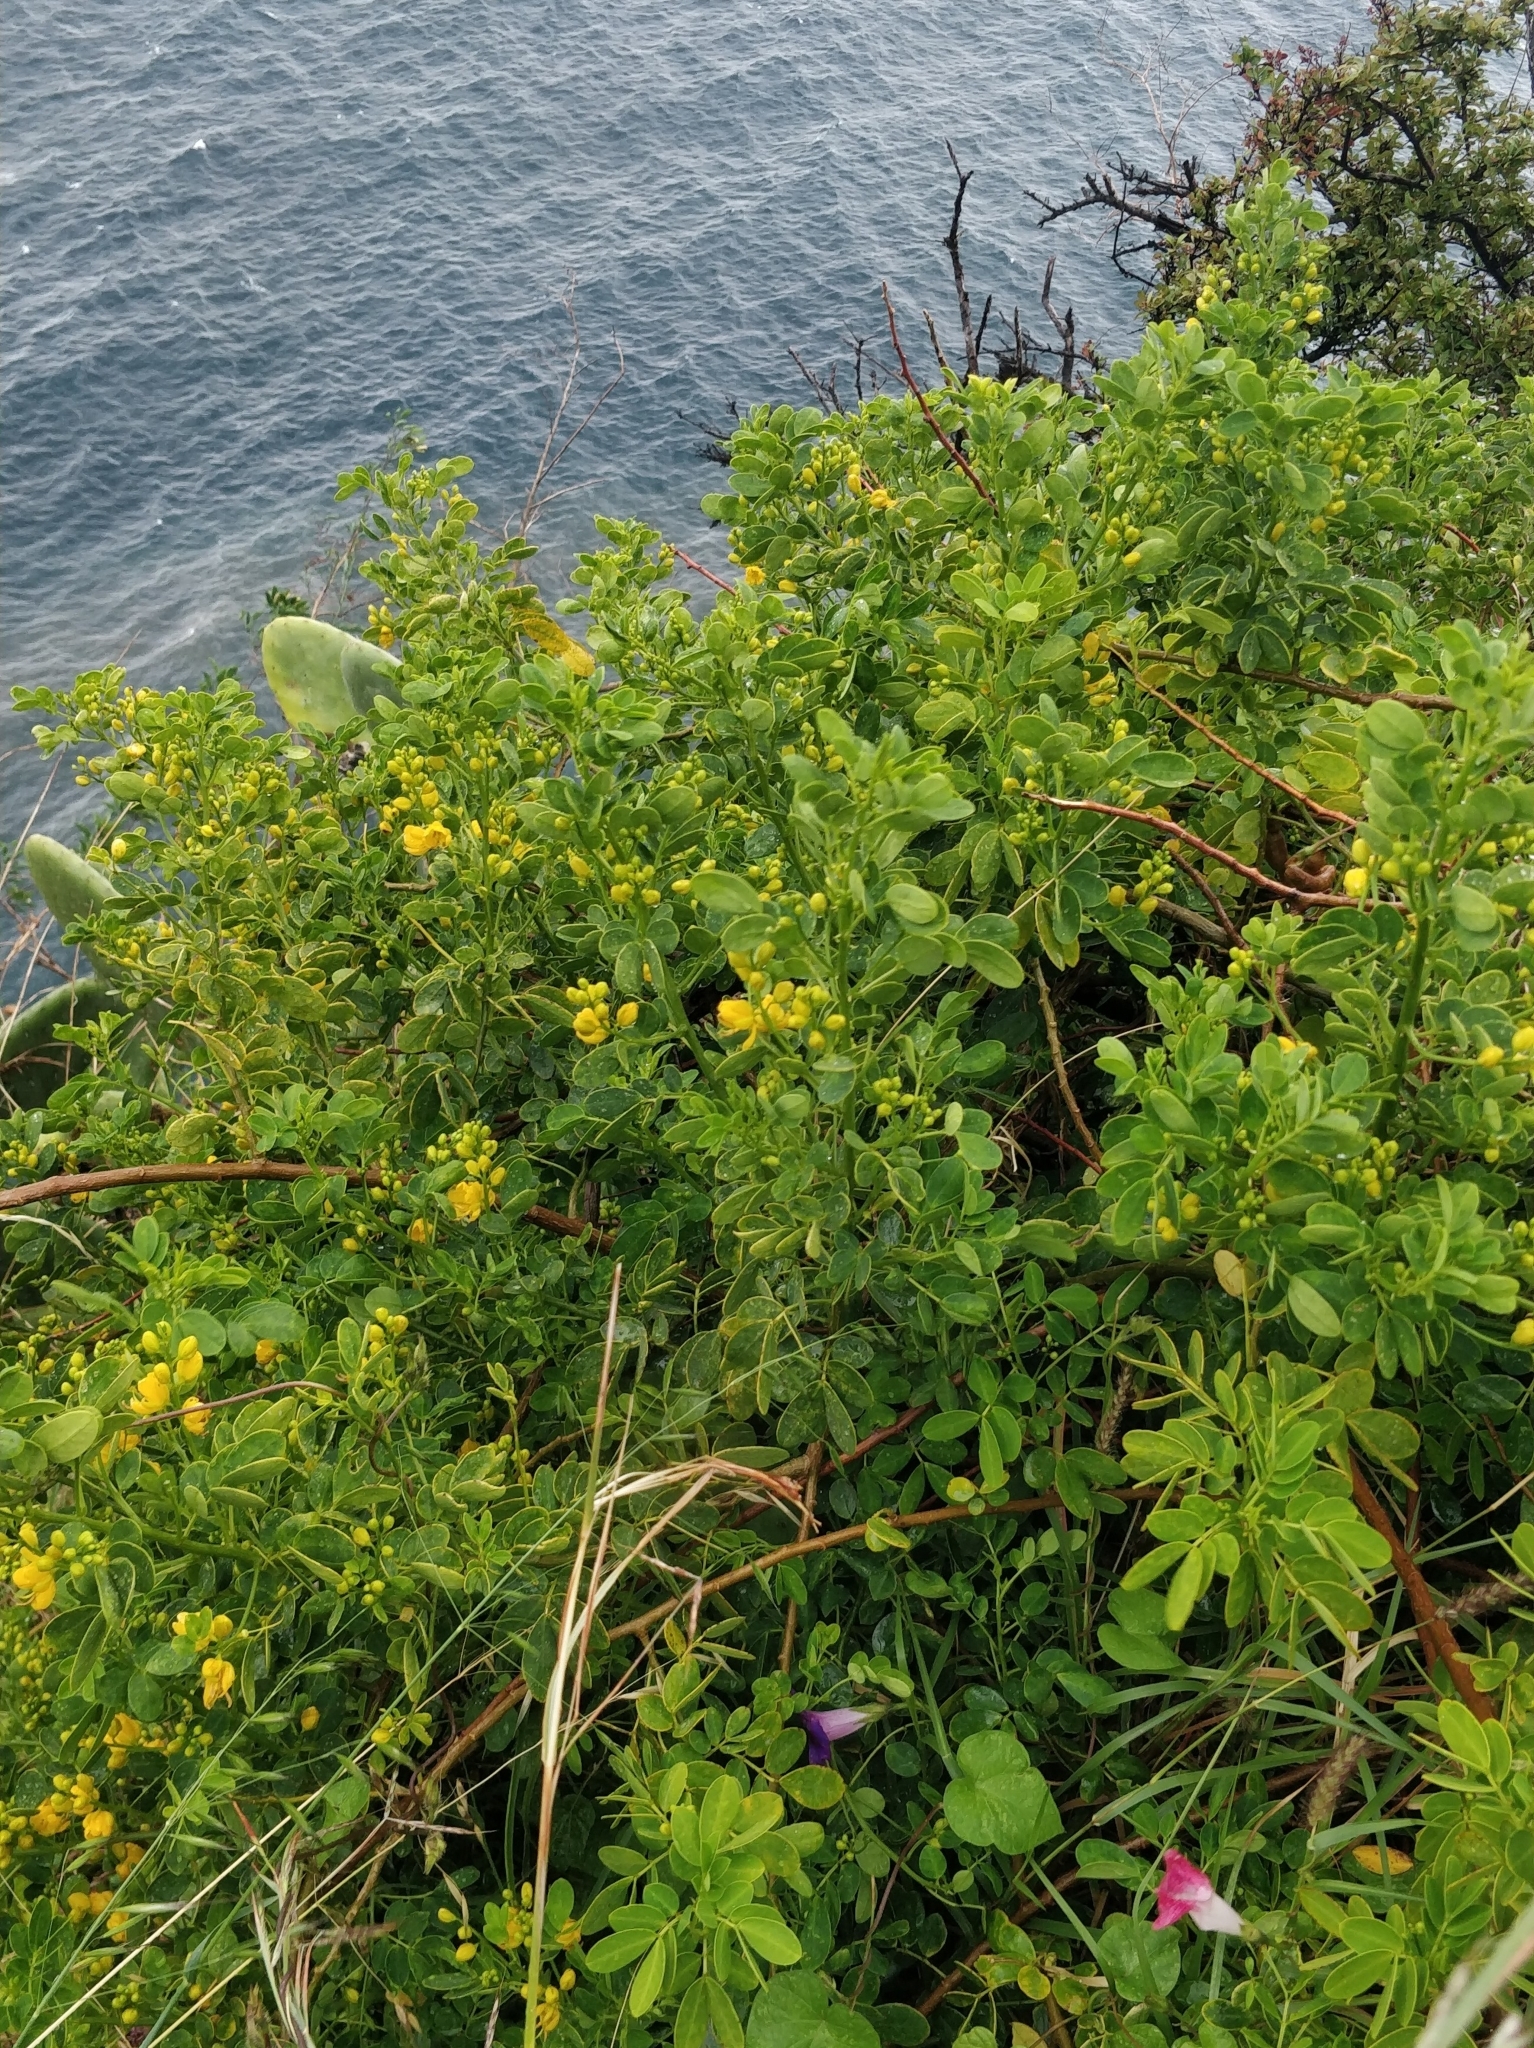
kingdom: Plantae
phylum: Tracheophyta
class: Magnoliopsida
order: Fabales
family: Fabaceae
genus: Senna
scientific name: Senna bicapsularis
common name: Christmasbush
